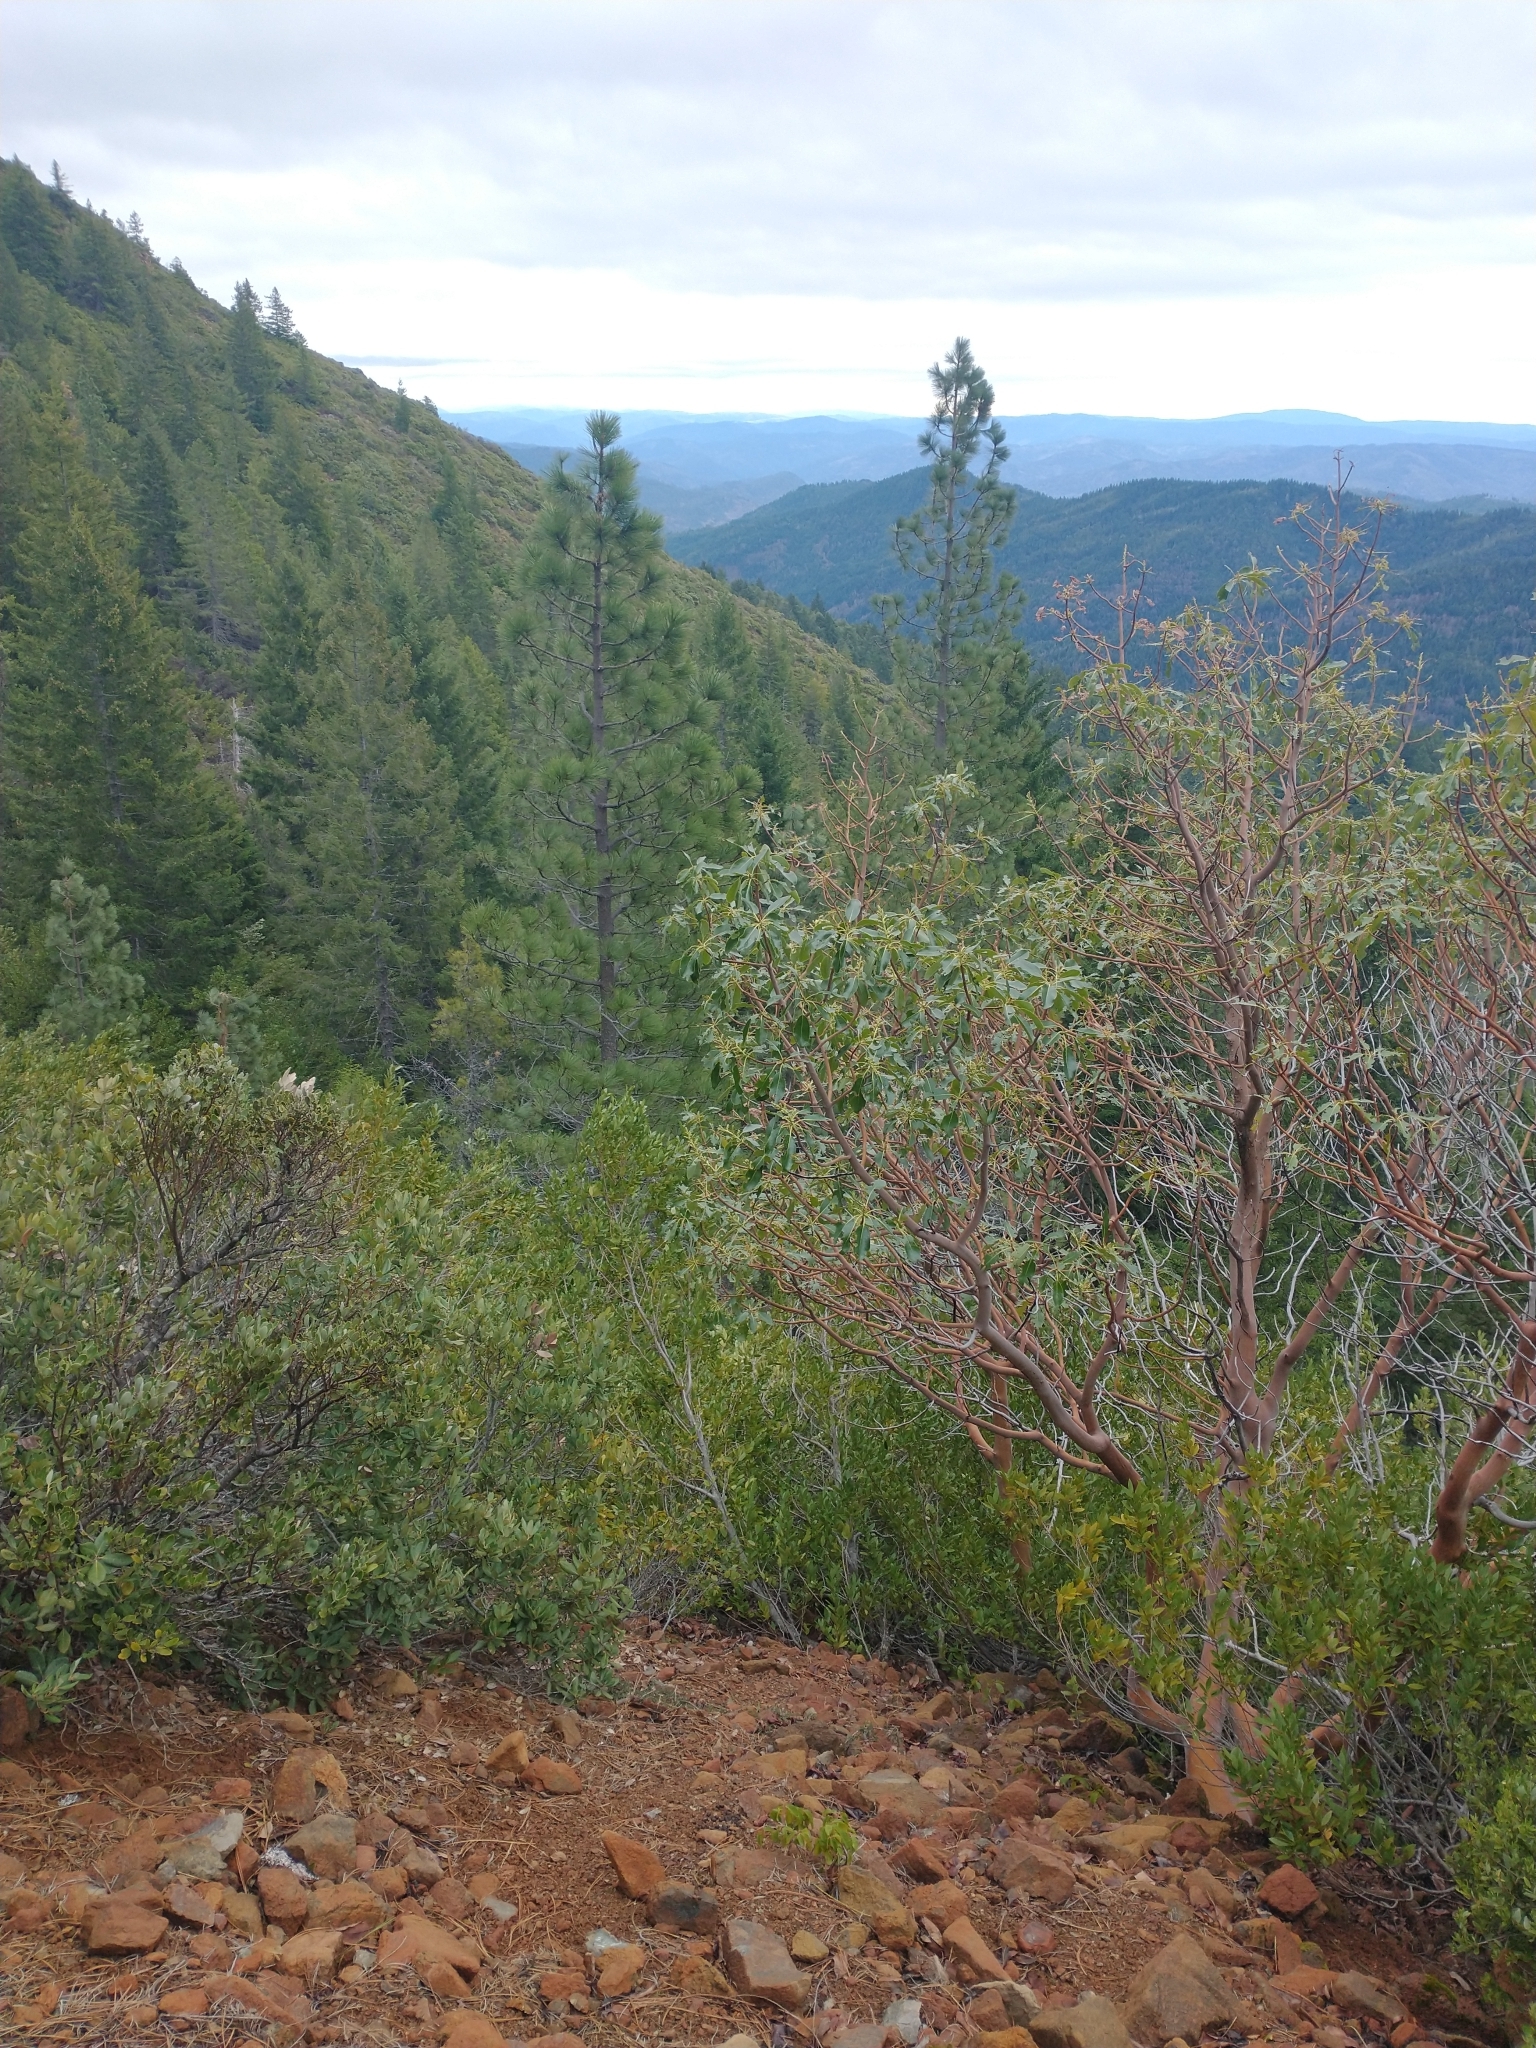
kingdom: Plantae
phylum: Tracheophyta
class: Magnoliopsida
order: Ericales
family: Ericaceae
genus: Arbutus
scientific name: Arbutus menziesii
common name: Pacific madrone
